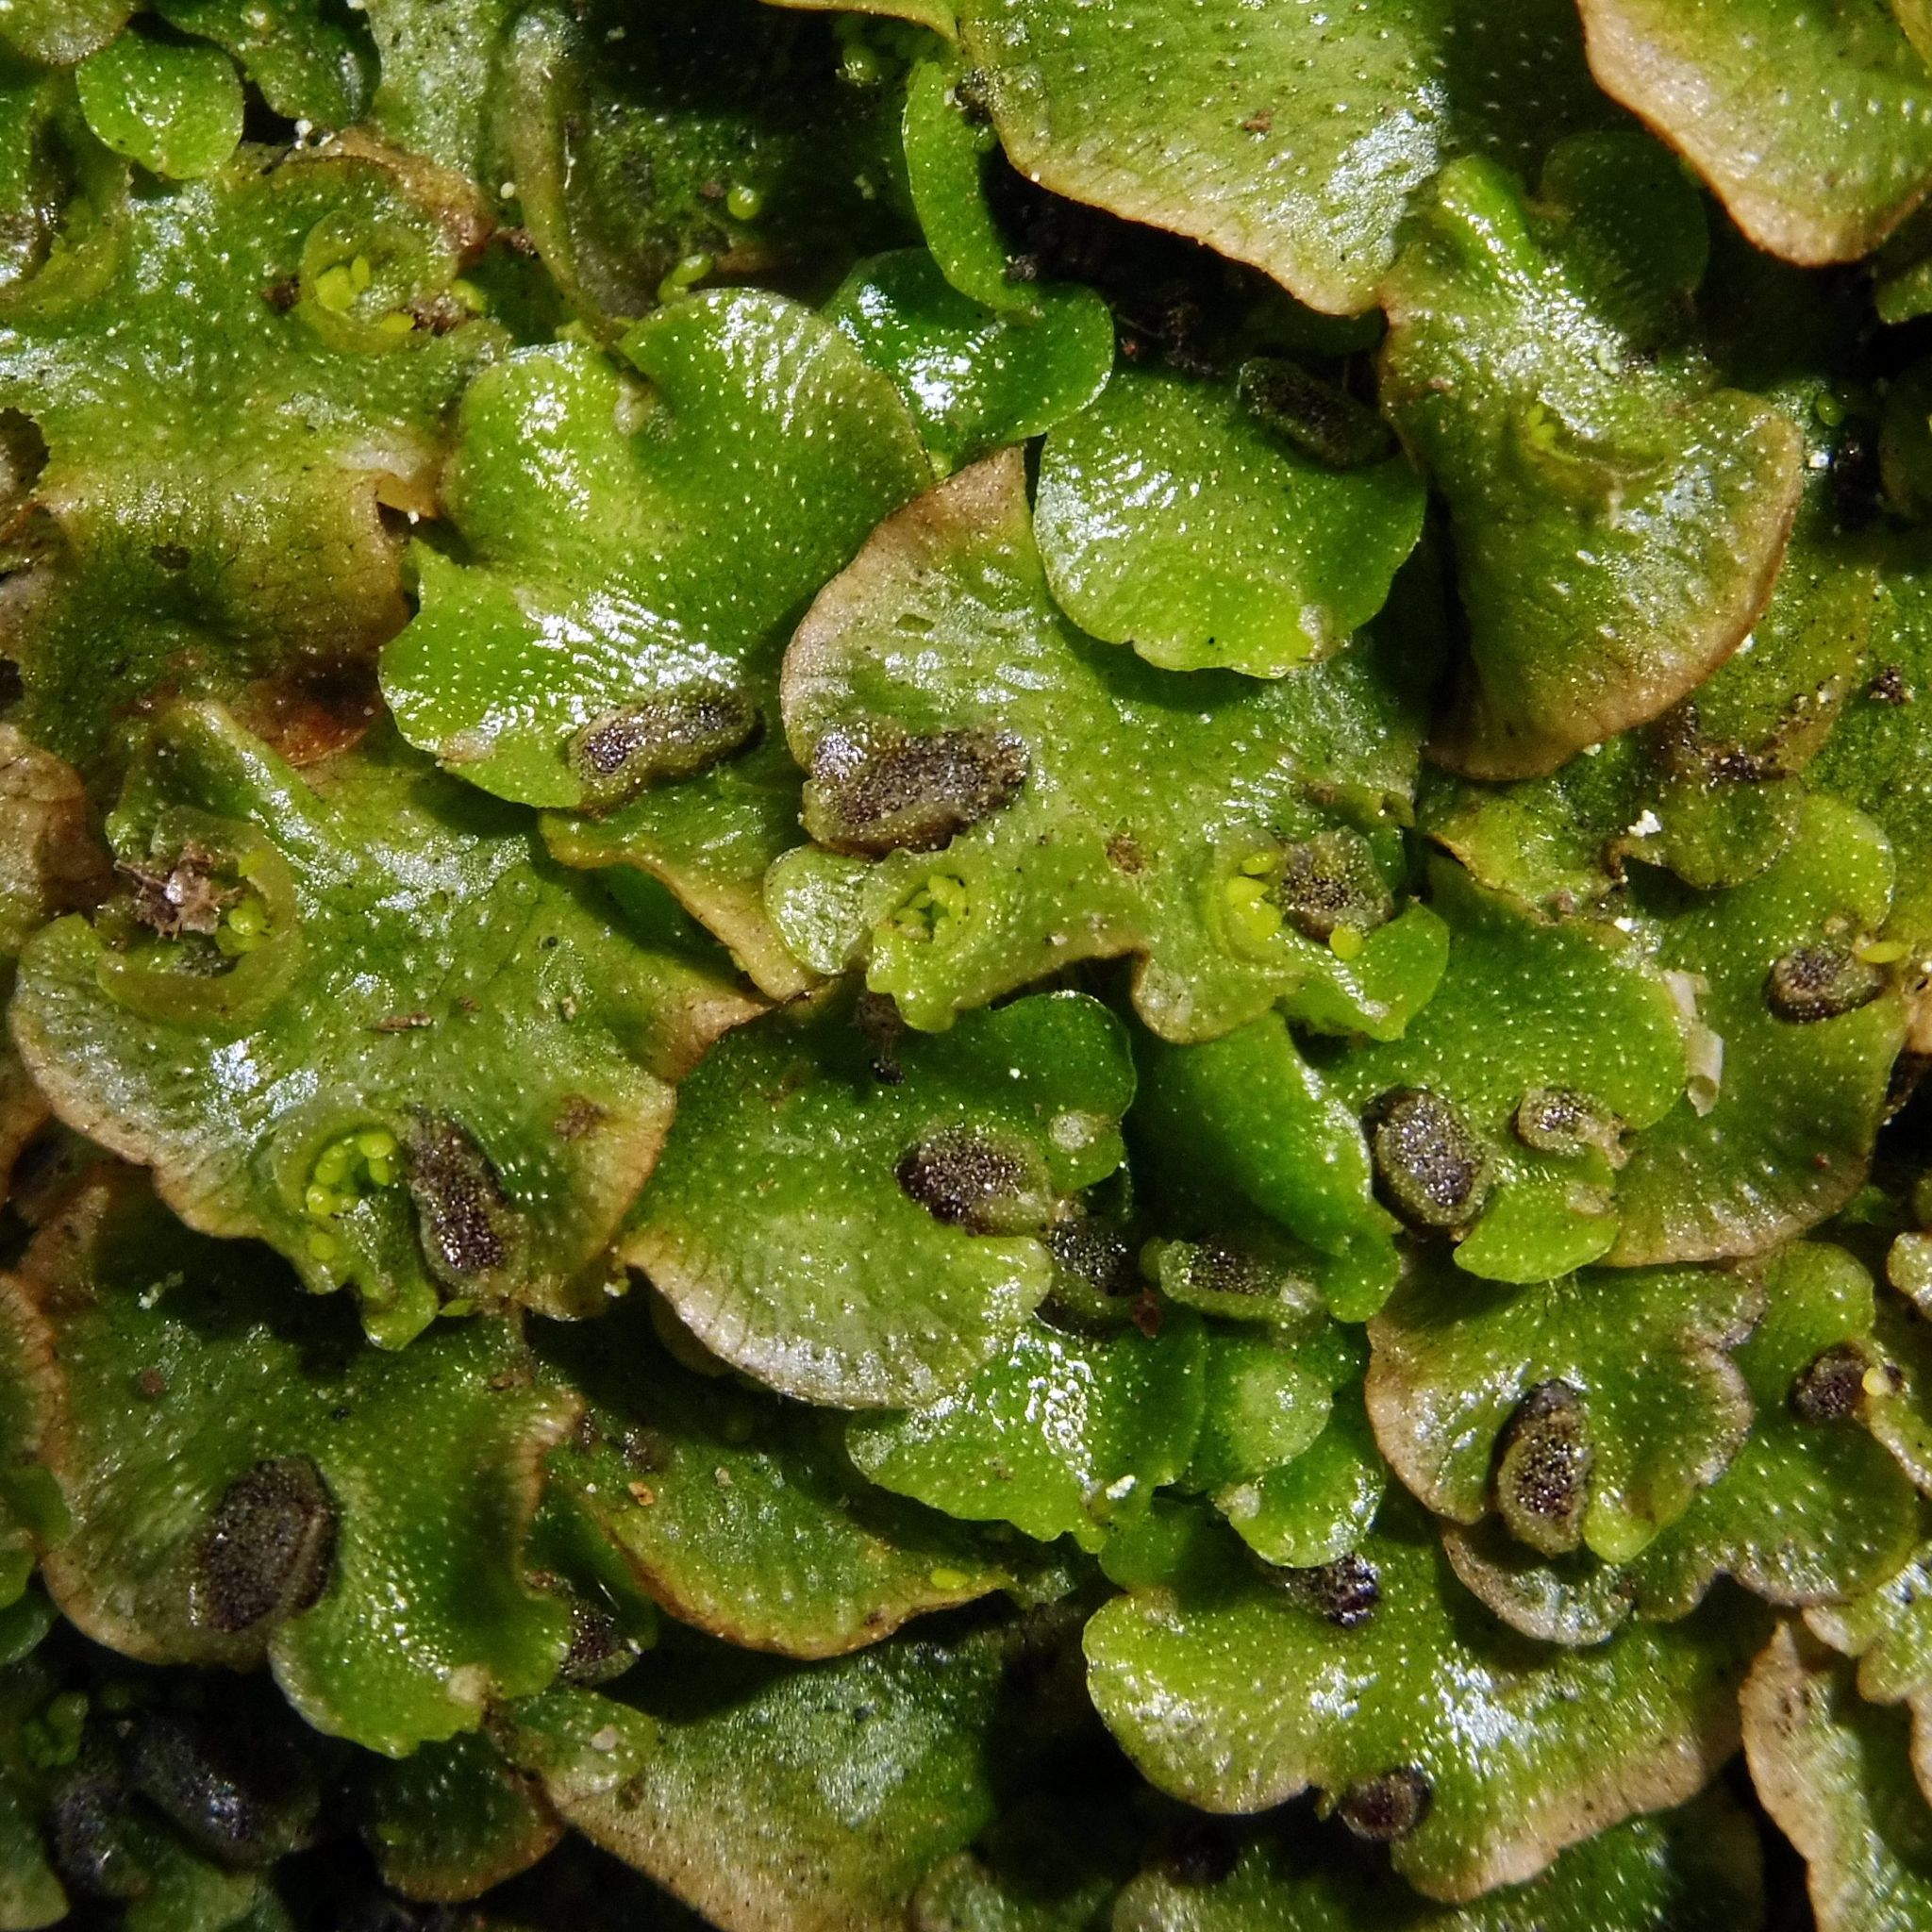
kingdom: Plantae
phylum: Marchantiophyta
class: Marchantiopsida
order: Lunulariales
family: Lunulariaceae
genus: Lunularia
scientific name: Lunularia cruciata
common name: Crescent-cup liverwort
